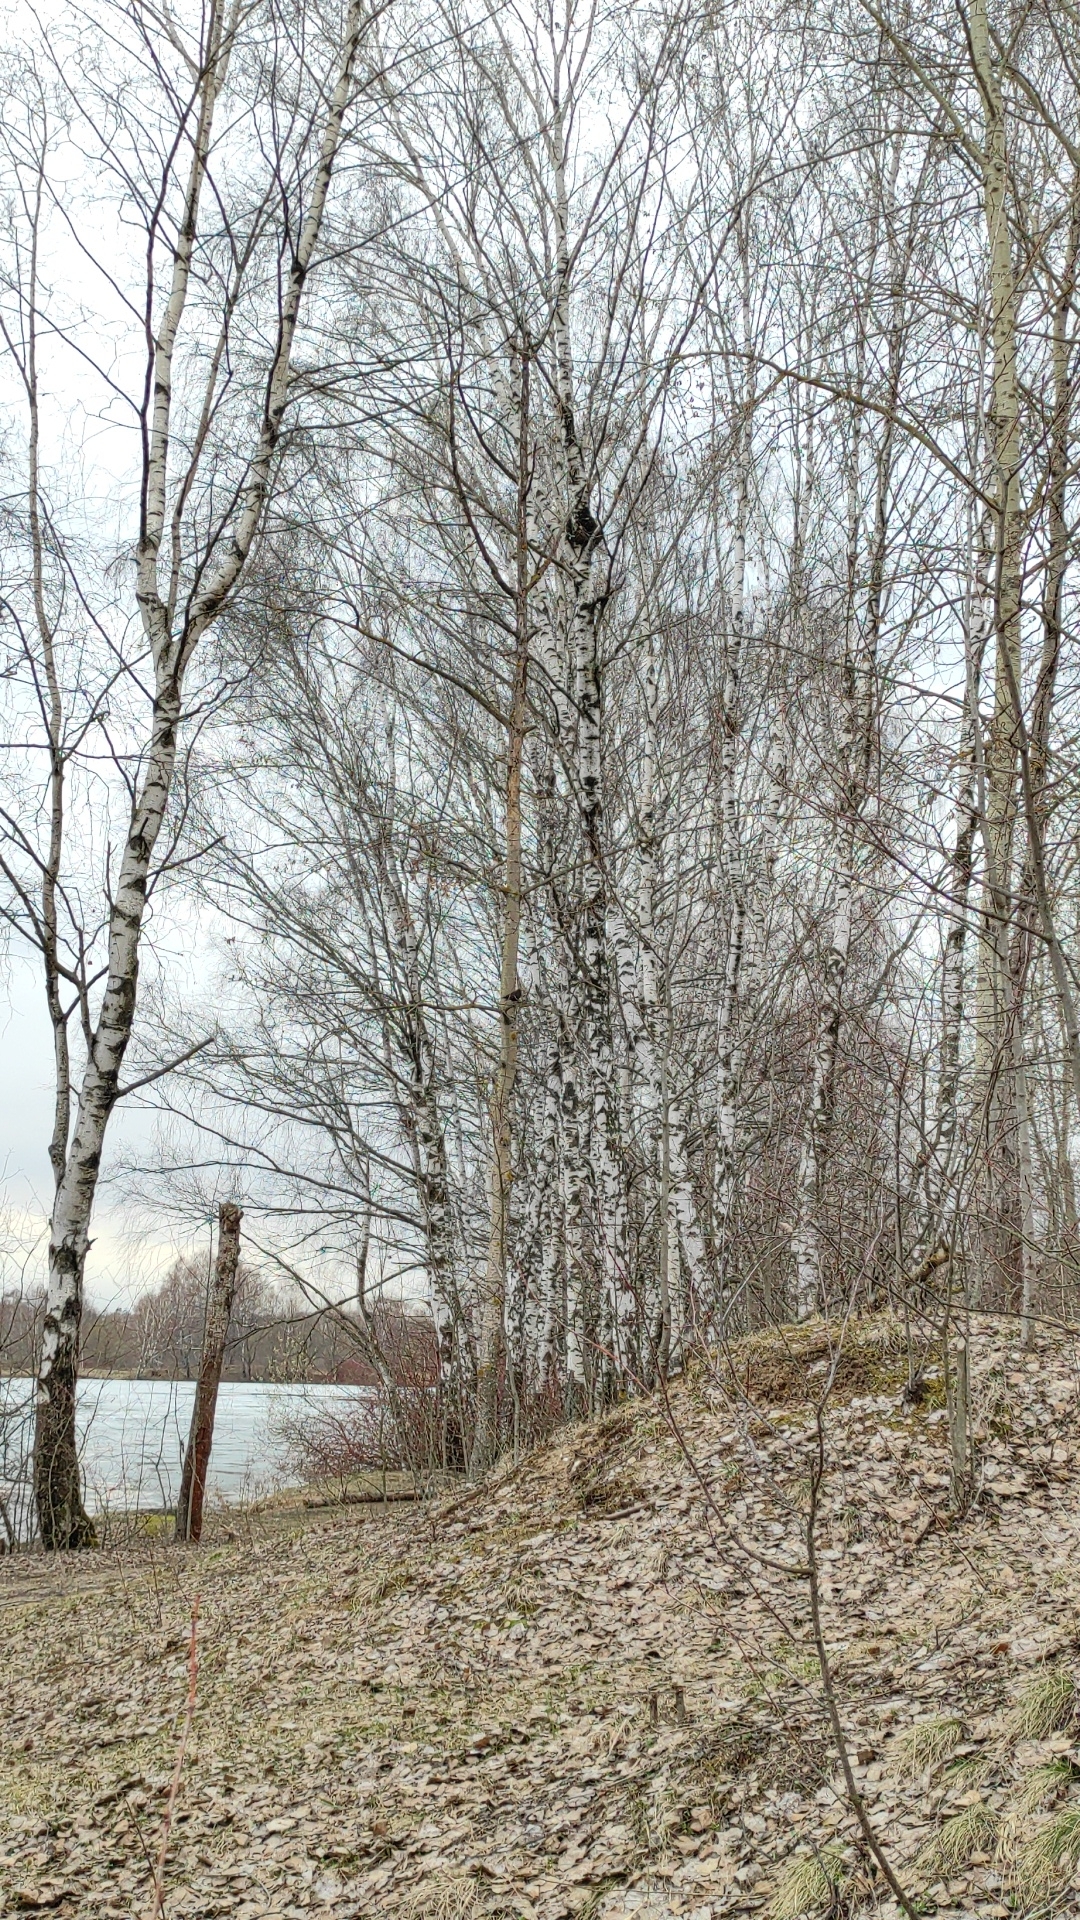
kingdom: Animalia
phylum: Chordata
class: Aves
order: Passeriformes
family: Turdidae
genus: Turdus
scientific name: Turdus merula
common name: Common blackbird
